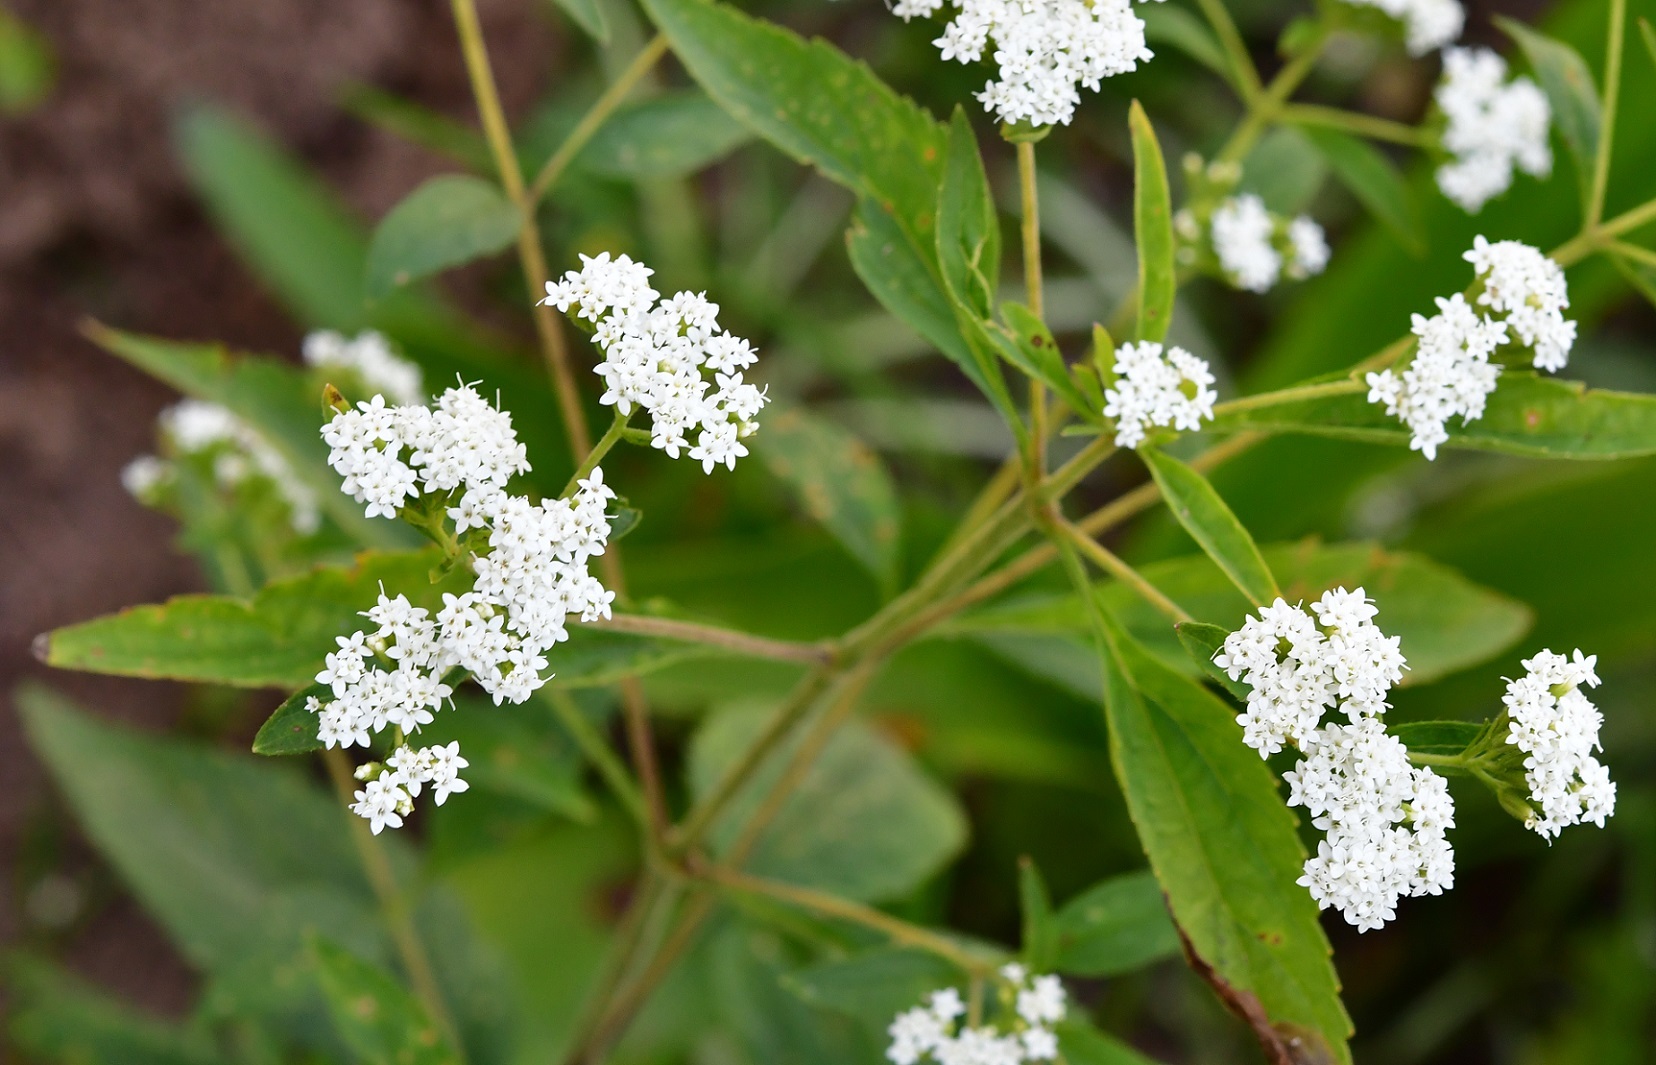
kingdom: Plantae
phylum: Tracheophyta
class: Magnoliopsida
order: Asterales
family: Asteraceae
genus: Stevia
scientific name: Stevia ovata
